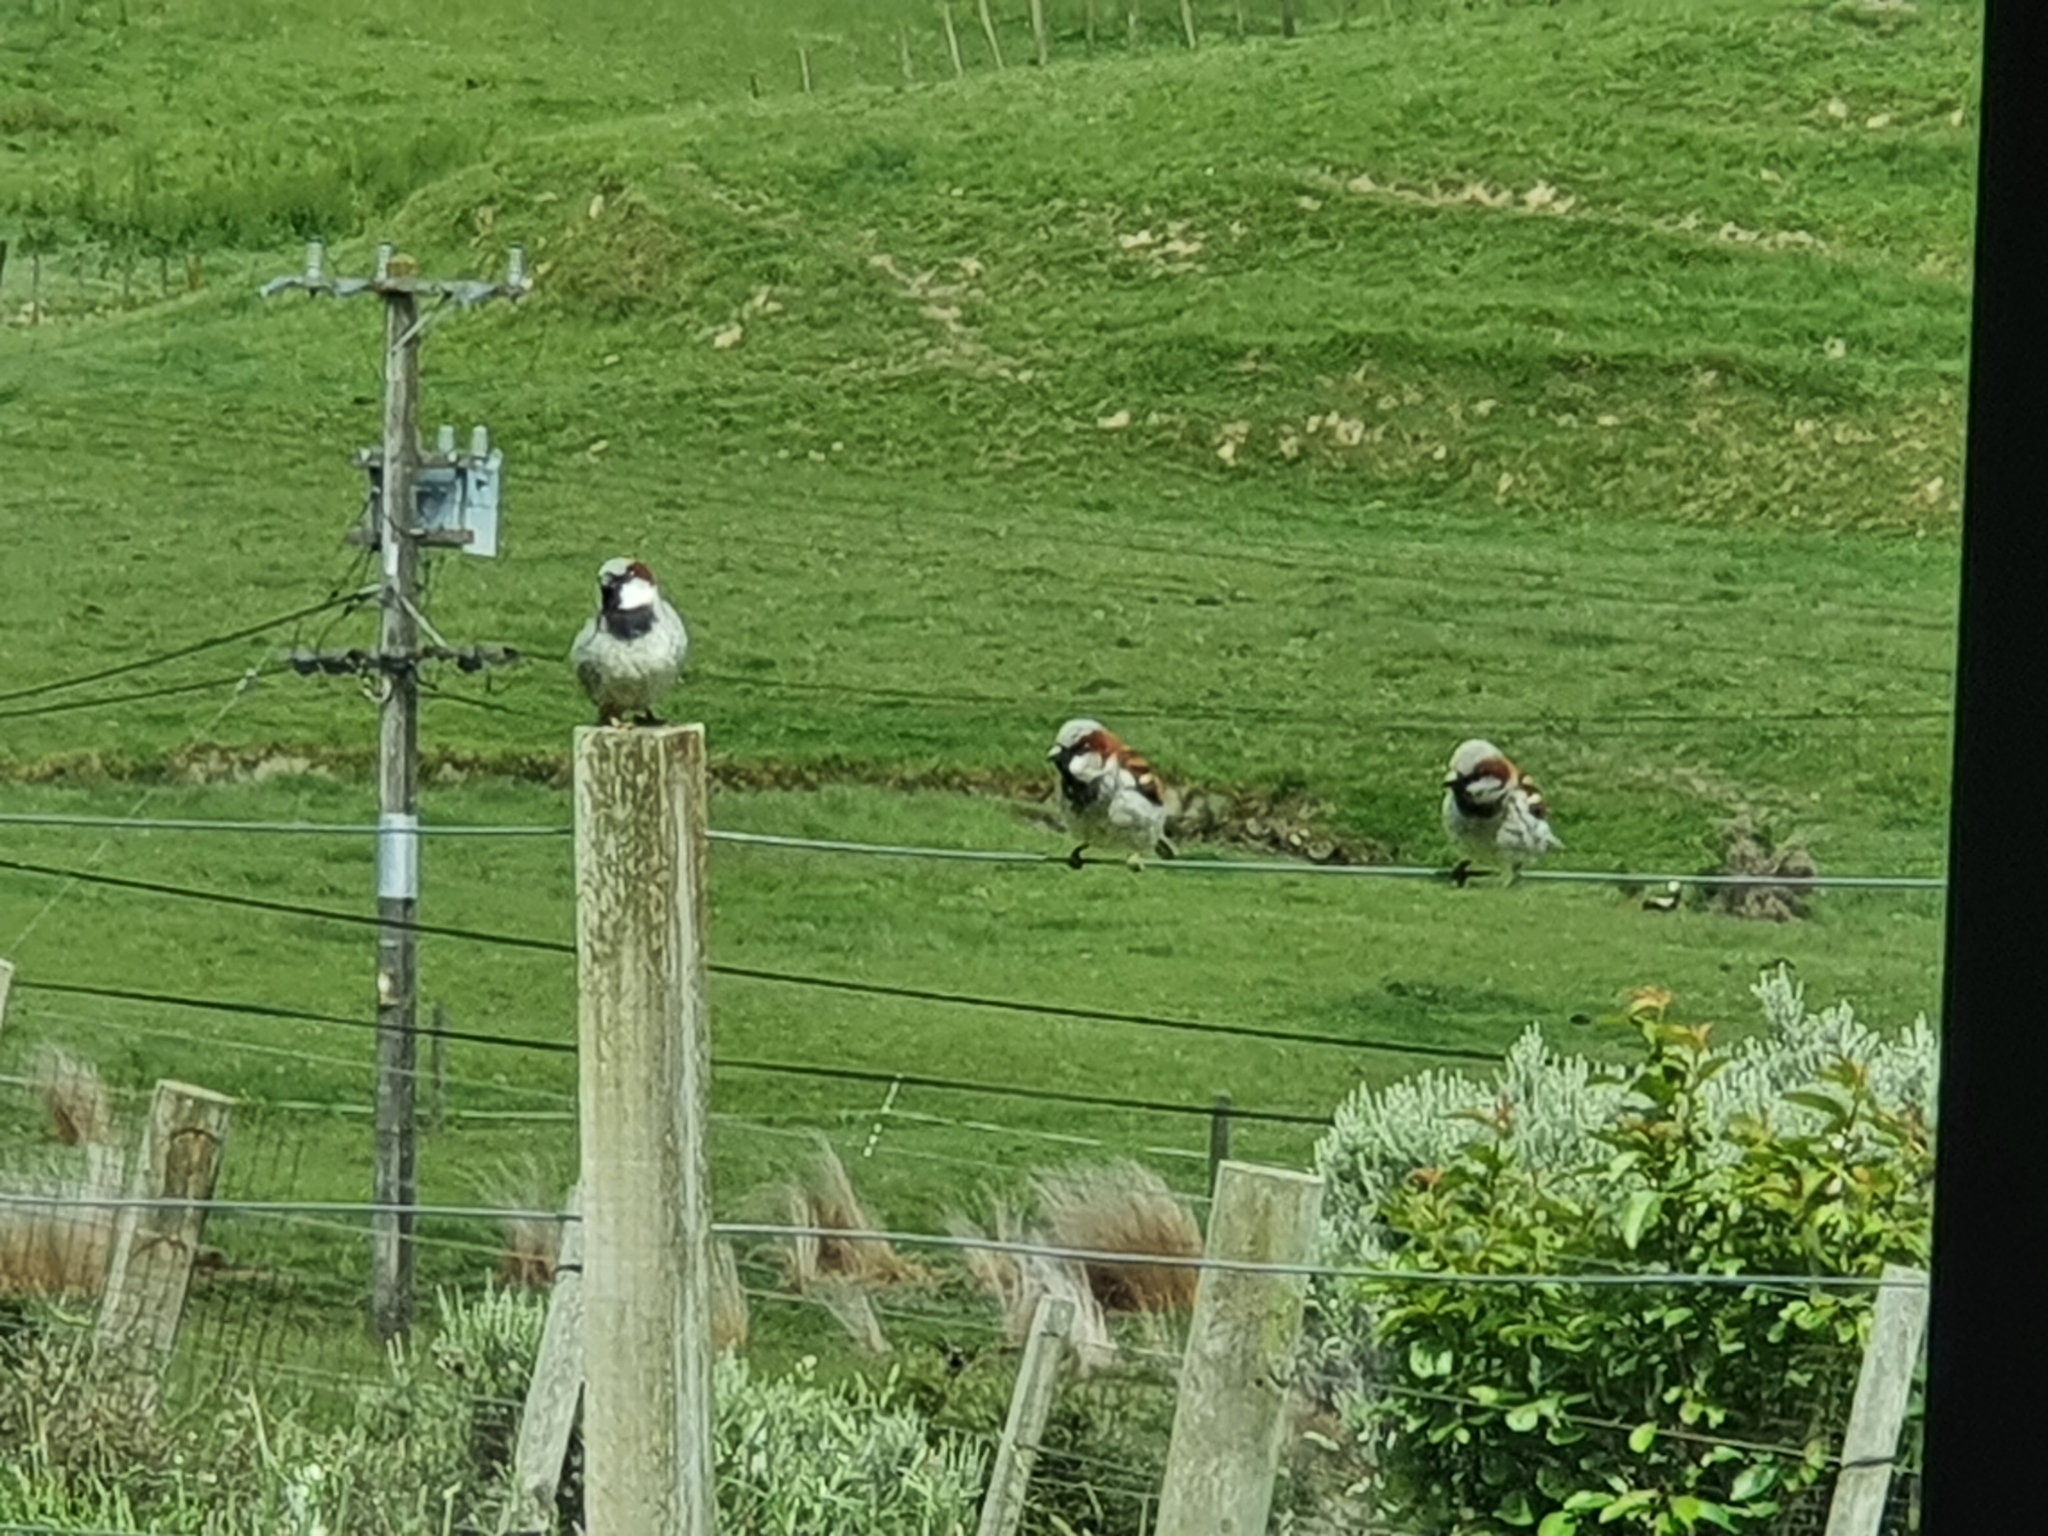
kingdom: Animalia
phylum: Chordata
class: Aves
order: Passeriformes
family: Passeridae
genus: Passer
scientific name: Passer domesticus
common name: House sparrow
